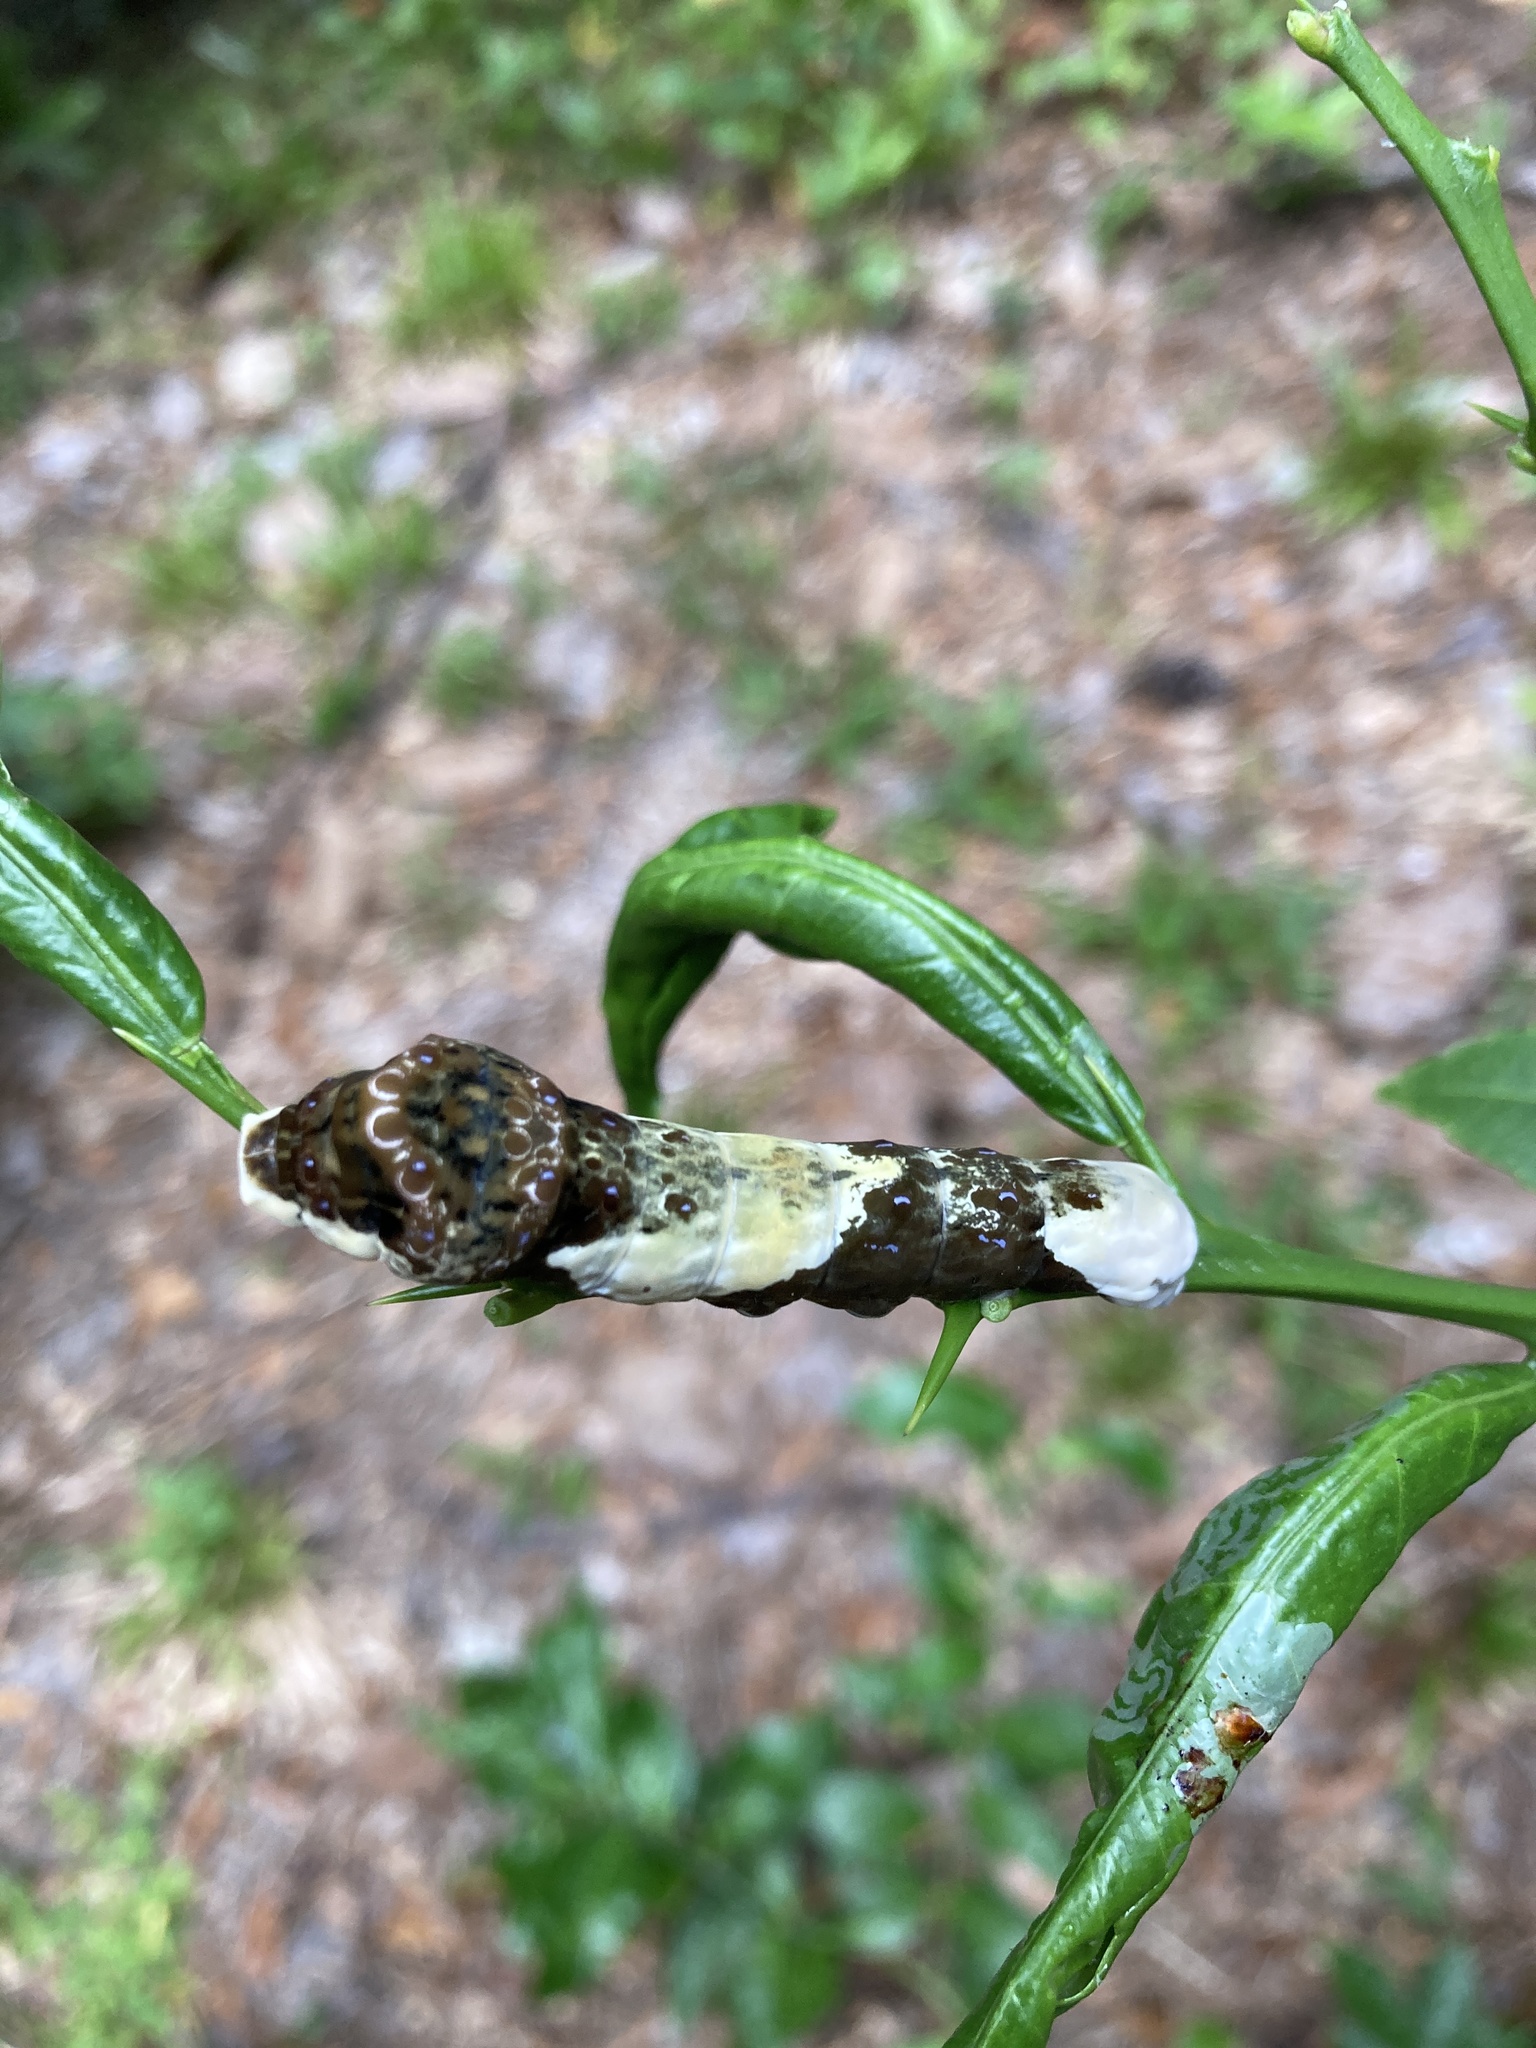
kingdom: Animalia
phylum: Arthropoda
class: Insecta
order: Lepidoptera
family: Papilionidae
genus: Papilio
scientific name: Papilio cresphontes
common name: Giant swallowtail
